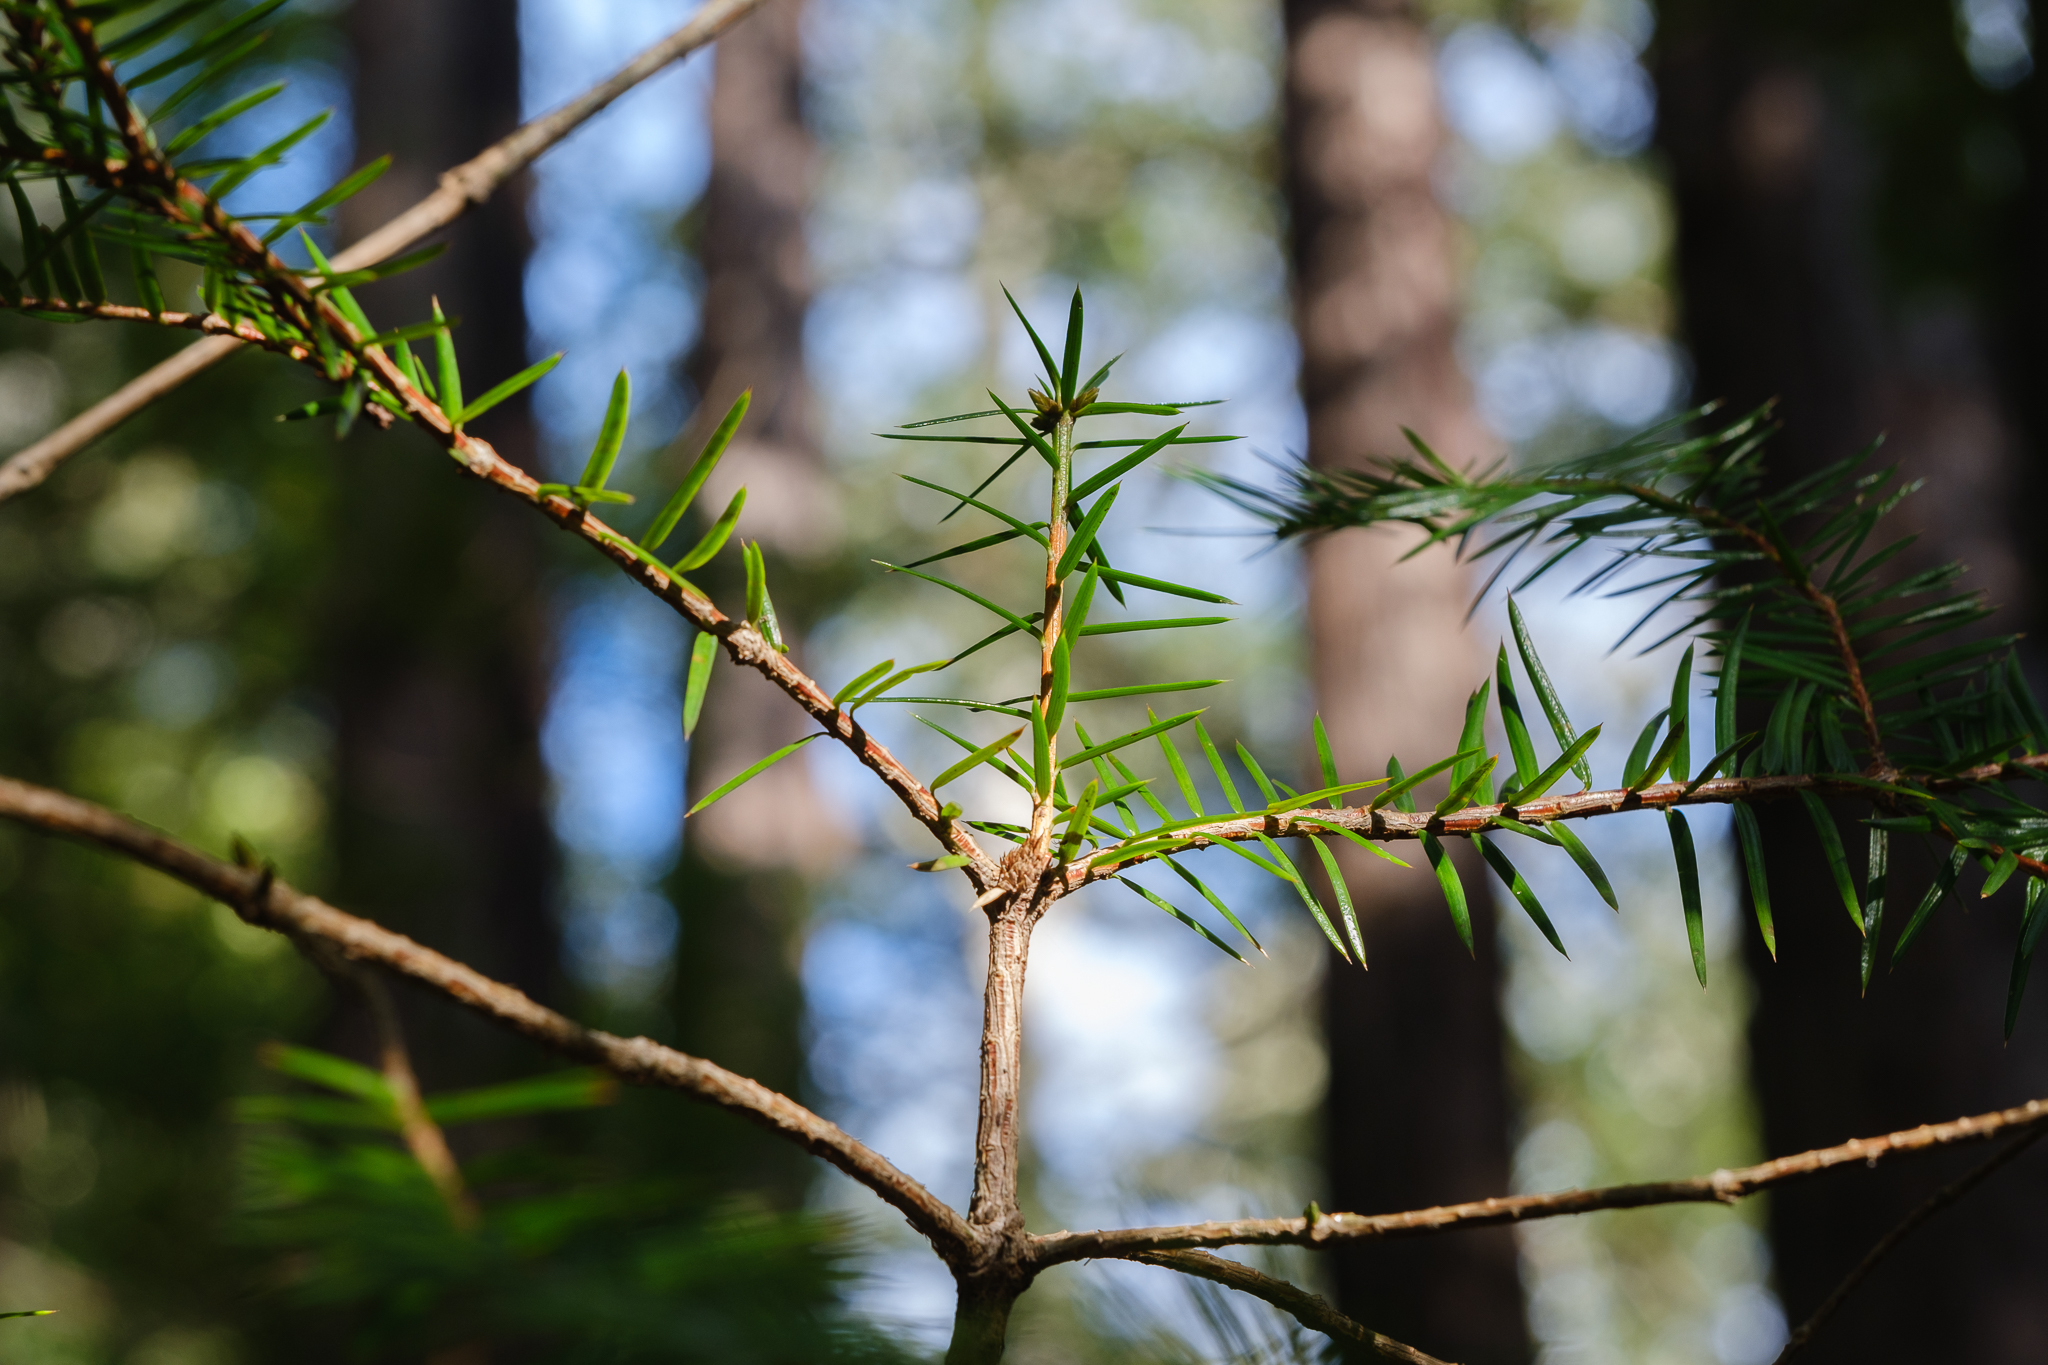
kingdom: Plantae
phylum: Tracheophyta
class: Pinopsida
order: Pinales
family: Taxaceae
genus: Torreya
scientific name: Torreya californica
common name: California torreya
